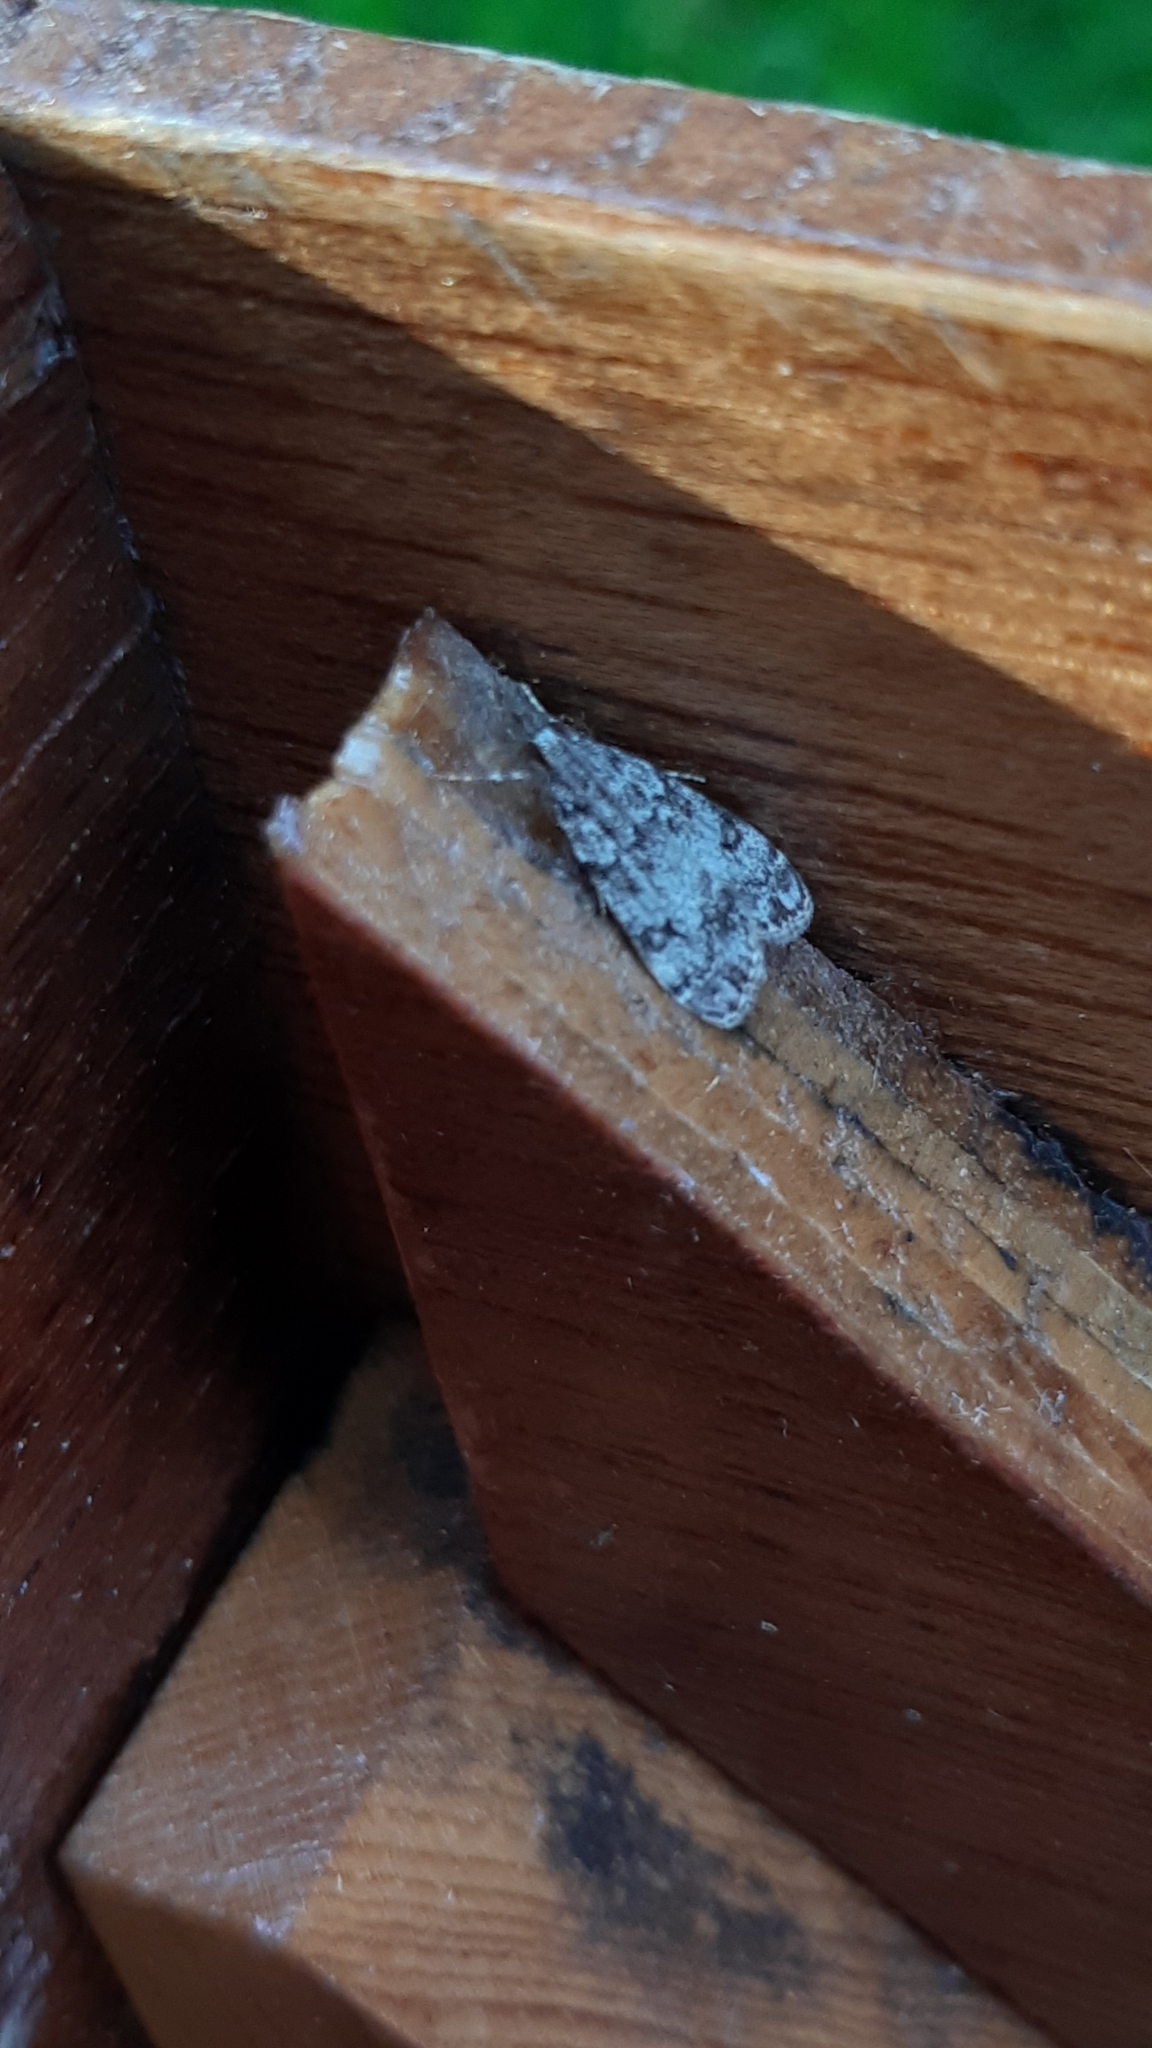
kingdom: Animalia
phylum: Arthropoda
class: Insecta
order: Lepidoptera
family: Crambidae
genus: Eudonia
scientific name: Eudonia lacustrata
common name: Little grey
